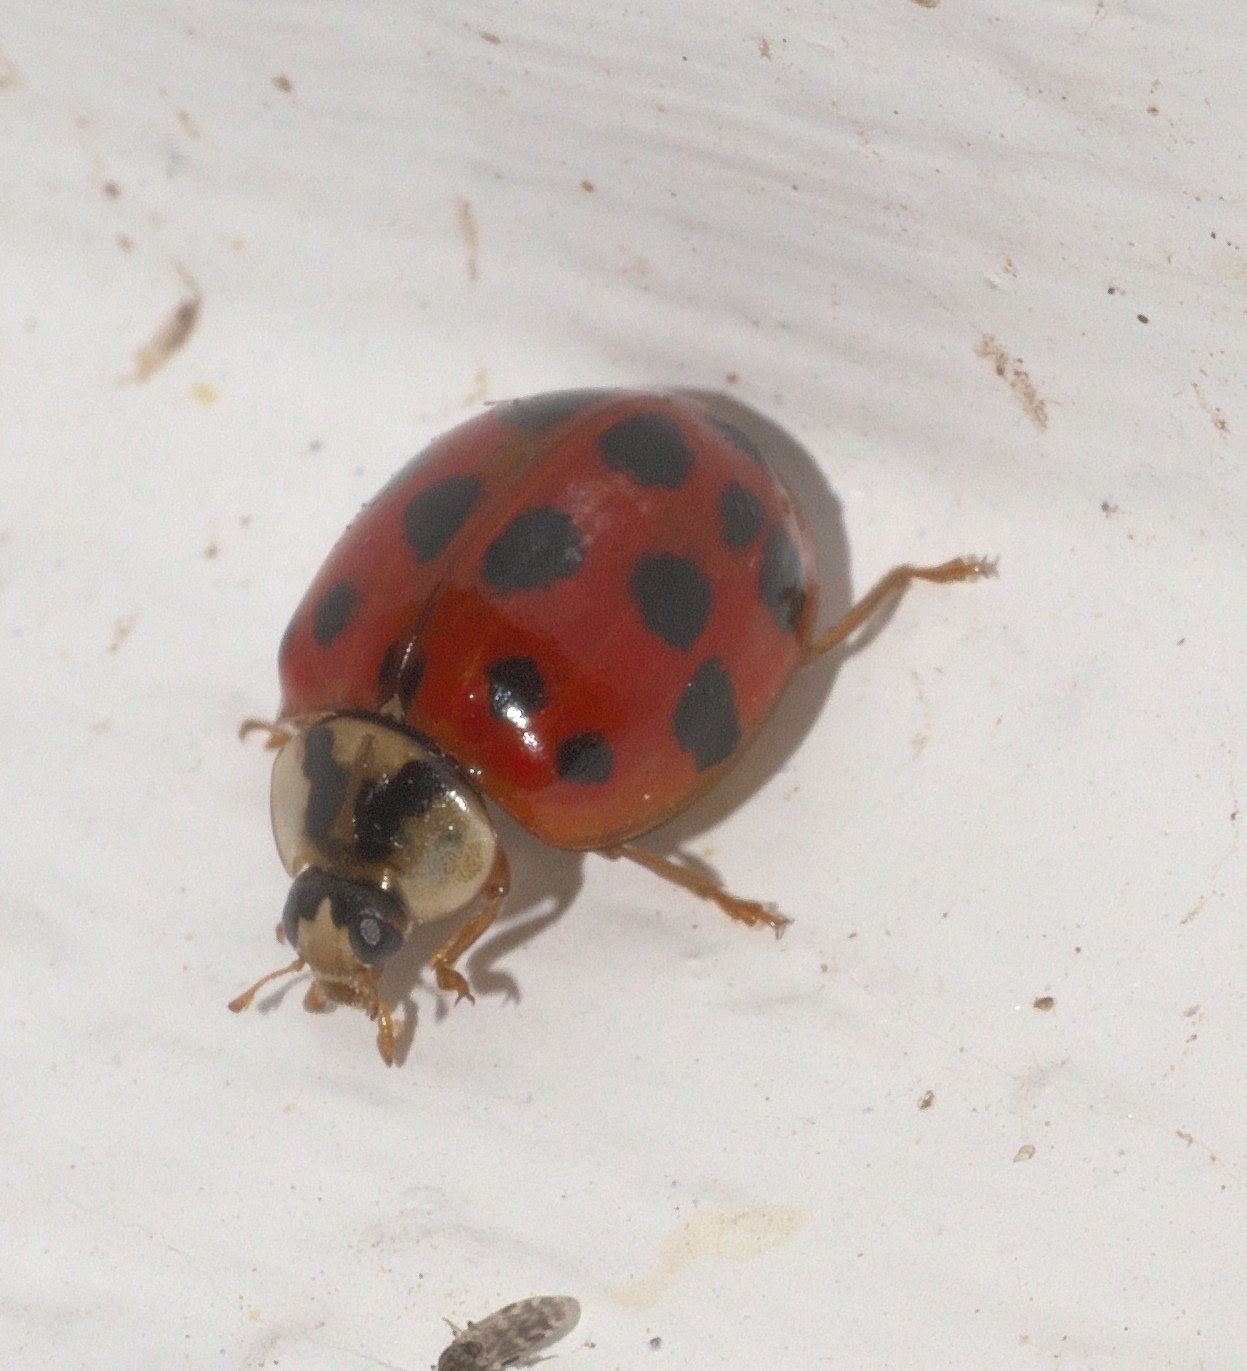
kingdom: Animalia
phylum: Arthropoda
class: Insecta
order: Coleoptera
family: Coccinellidae
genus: Harmonia
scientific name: Harmonia axyridis
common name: Harlequin ladybird
